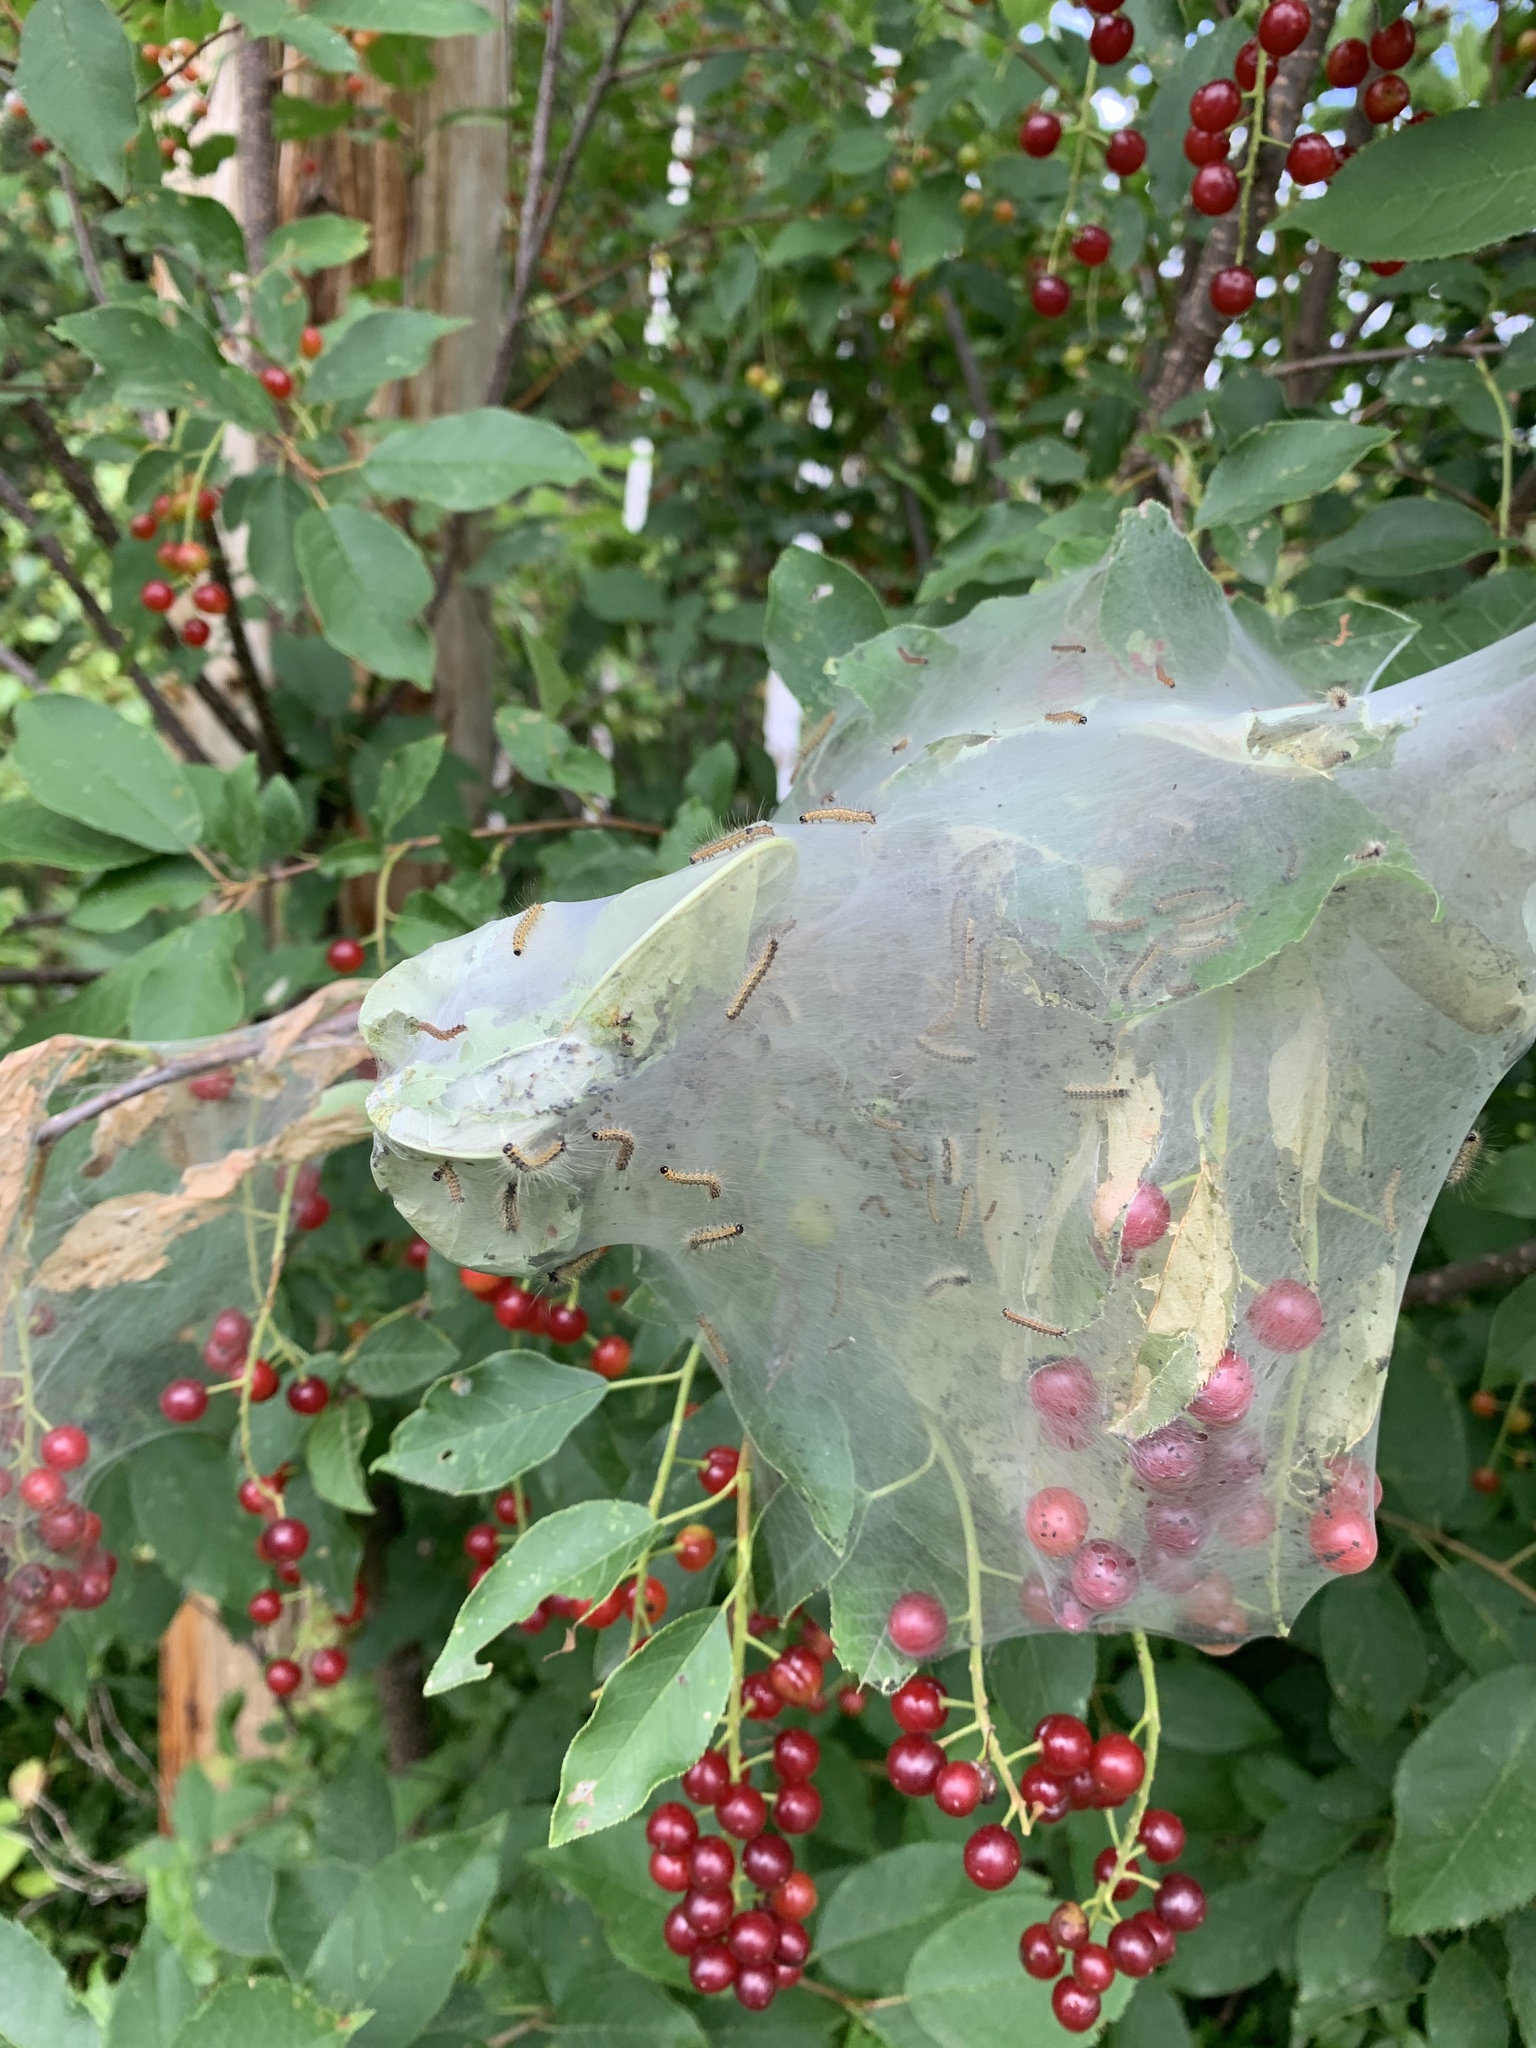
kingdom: Animalia
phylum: Arthropoda
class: Insecta
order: Lepidoptera
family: Erebidae
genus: Hyphantria
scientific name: Hyphantria cunea
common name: American white moth
